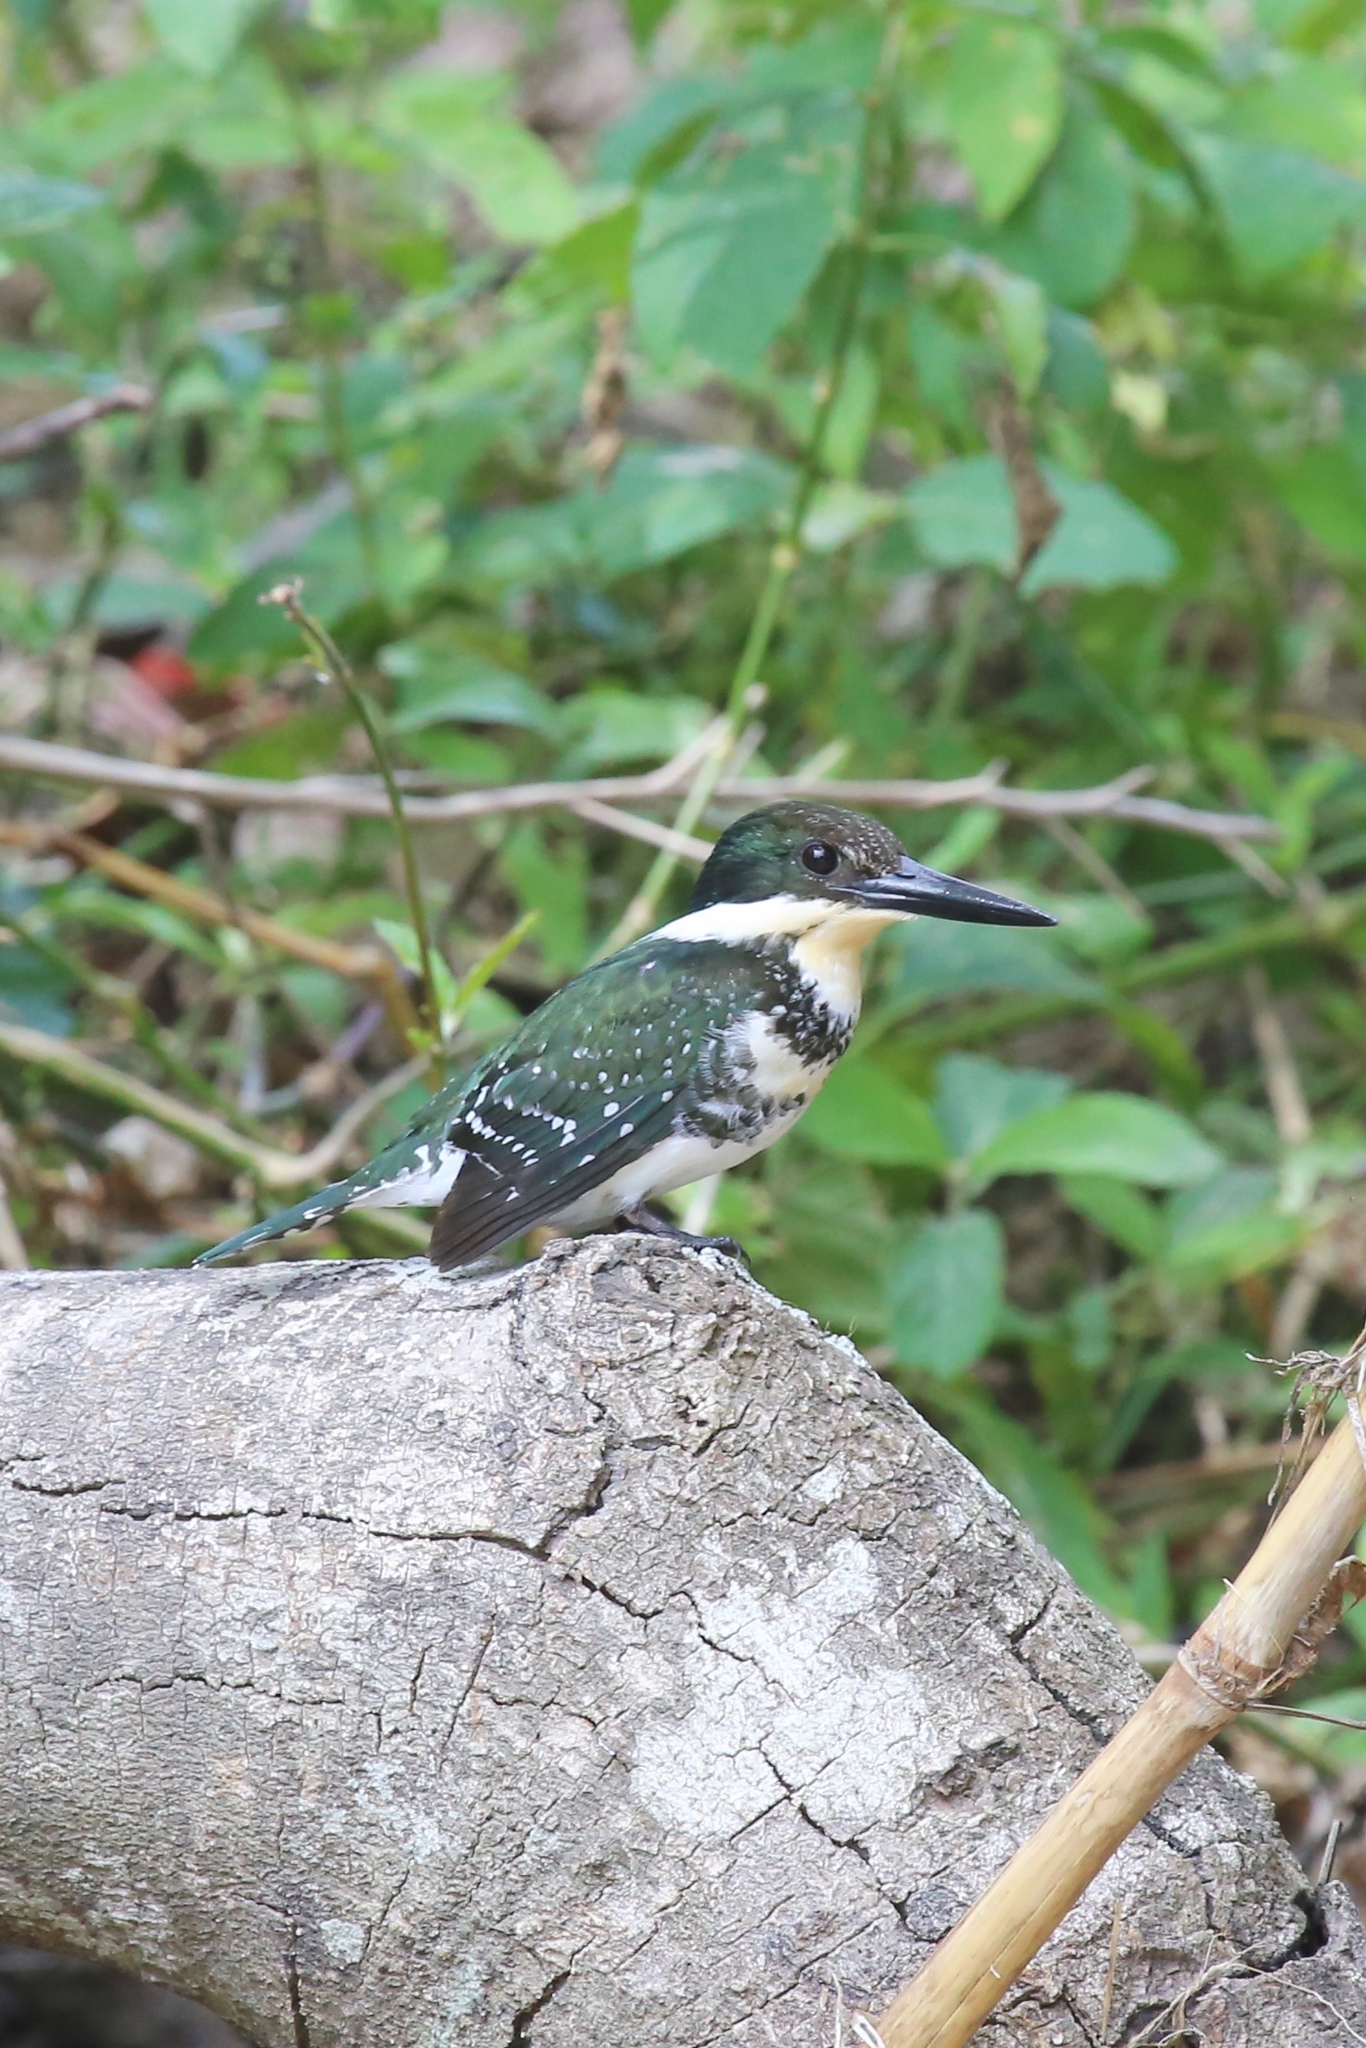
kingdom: Animalia
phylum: Chordata
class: Aves
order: Coraciiformes
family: Alcedinidae
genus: Chloroceryle
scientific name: Chloroceryle americana
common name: Green kingfisher
